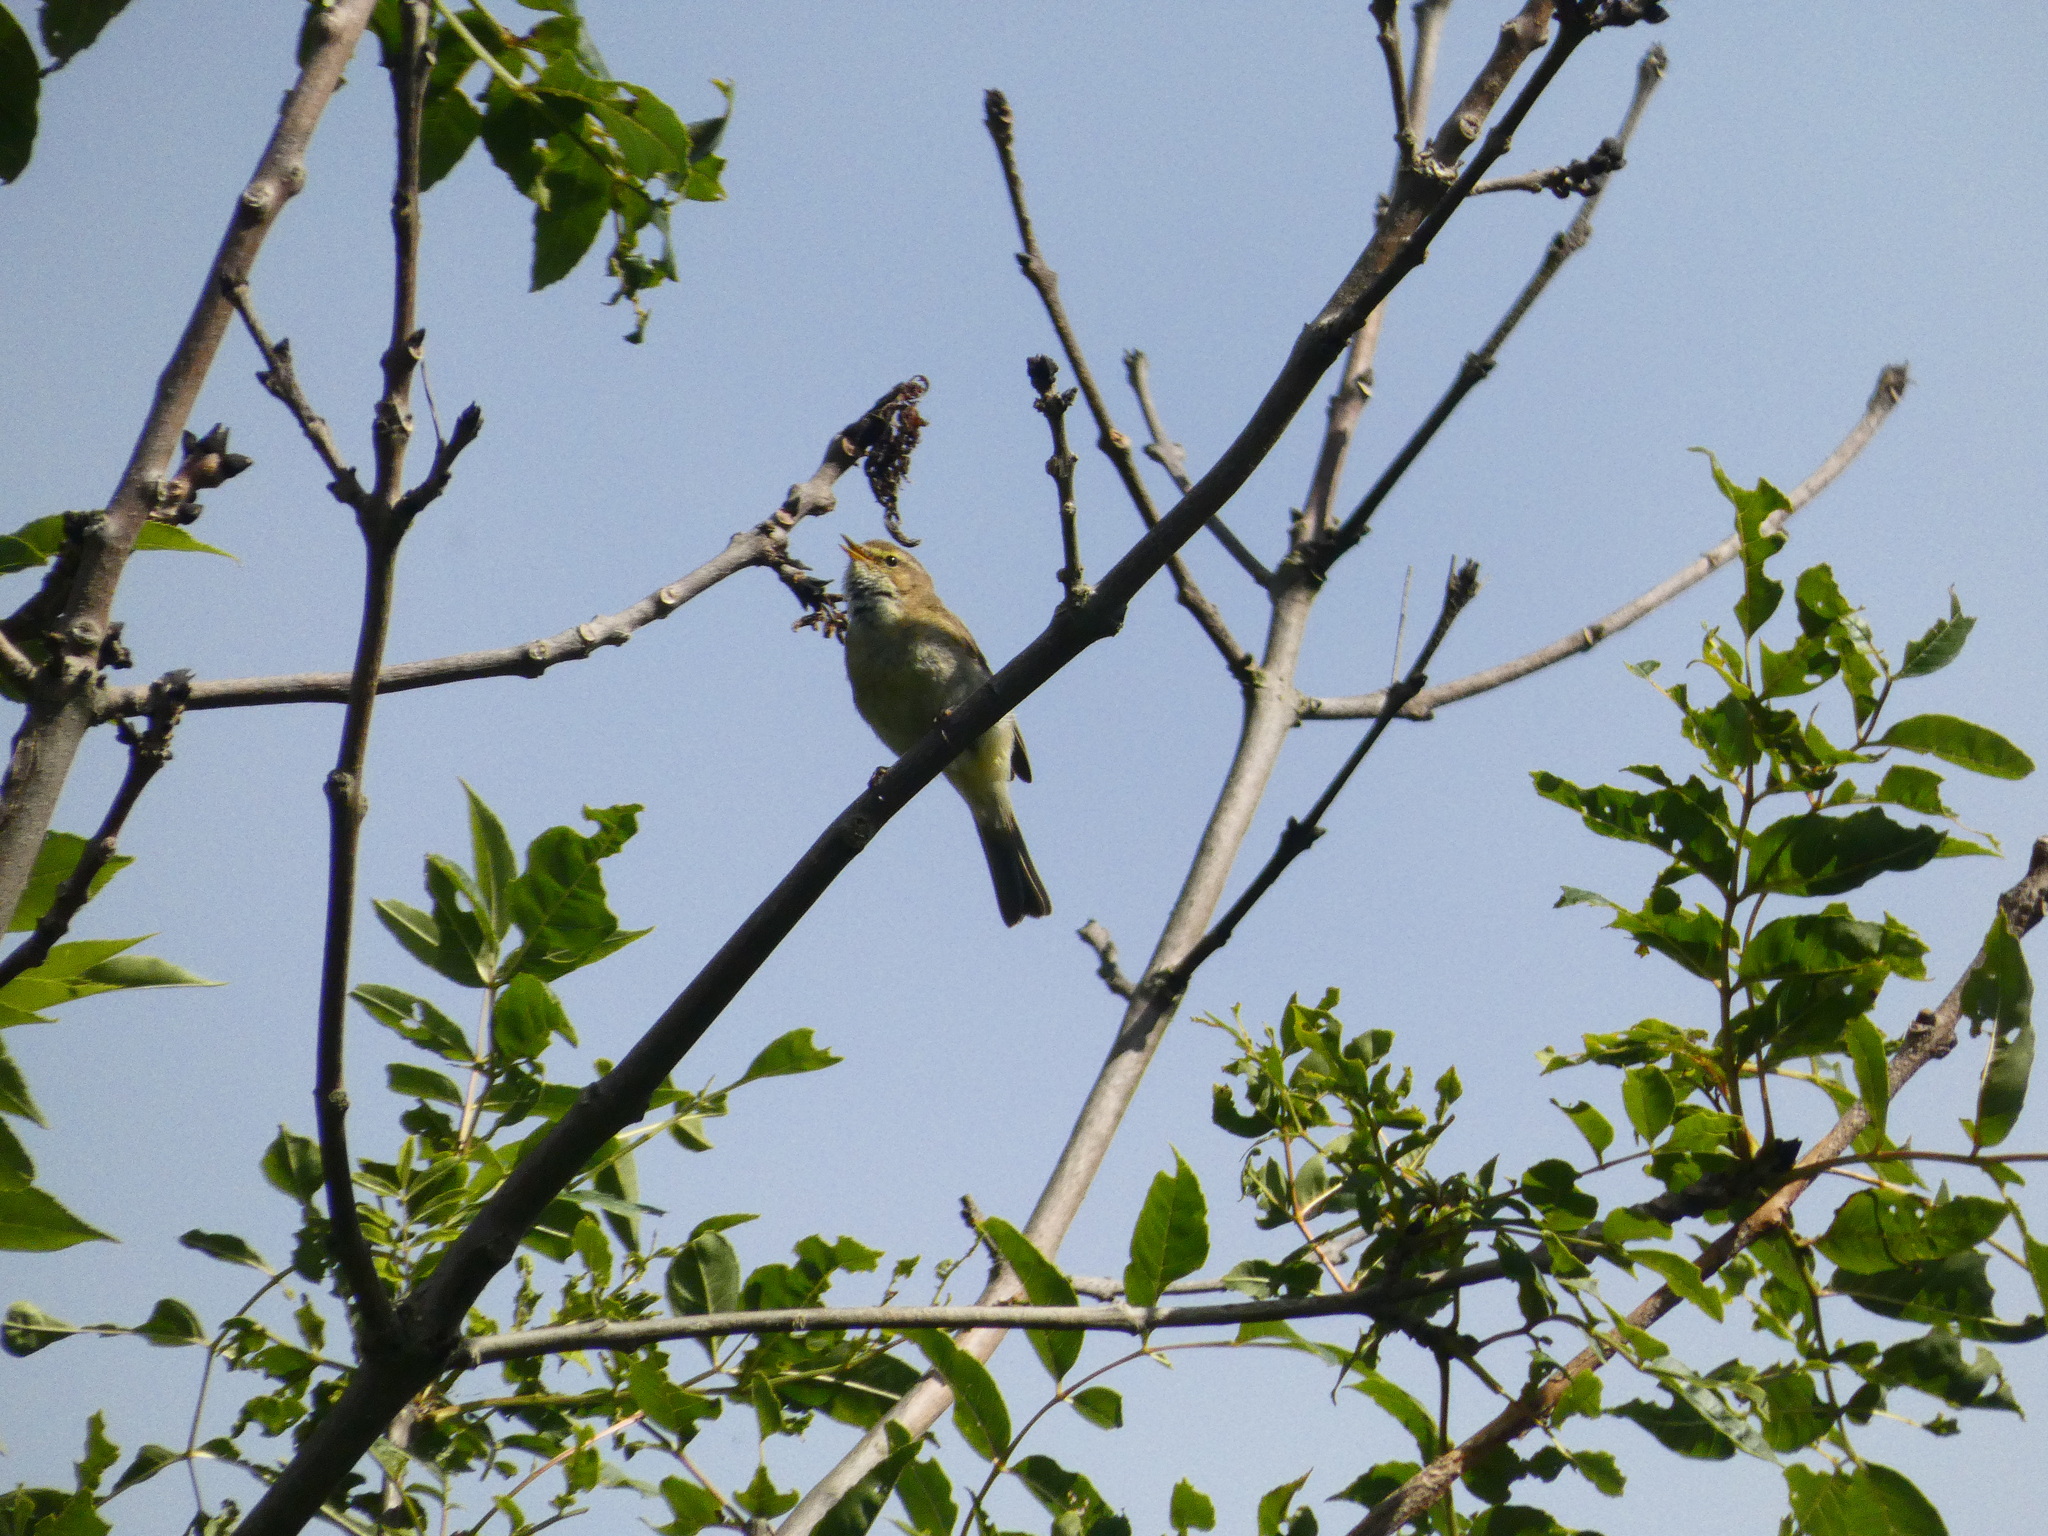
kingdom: Animalia
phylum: Chordata
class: Aves
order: Passeriformes
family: Phylloscopidae
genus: Phylloscopus
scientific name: Phylloscopus collybita
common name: Common chiffchaff
